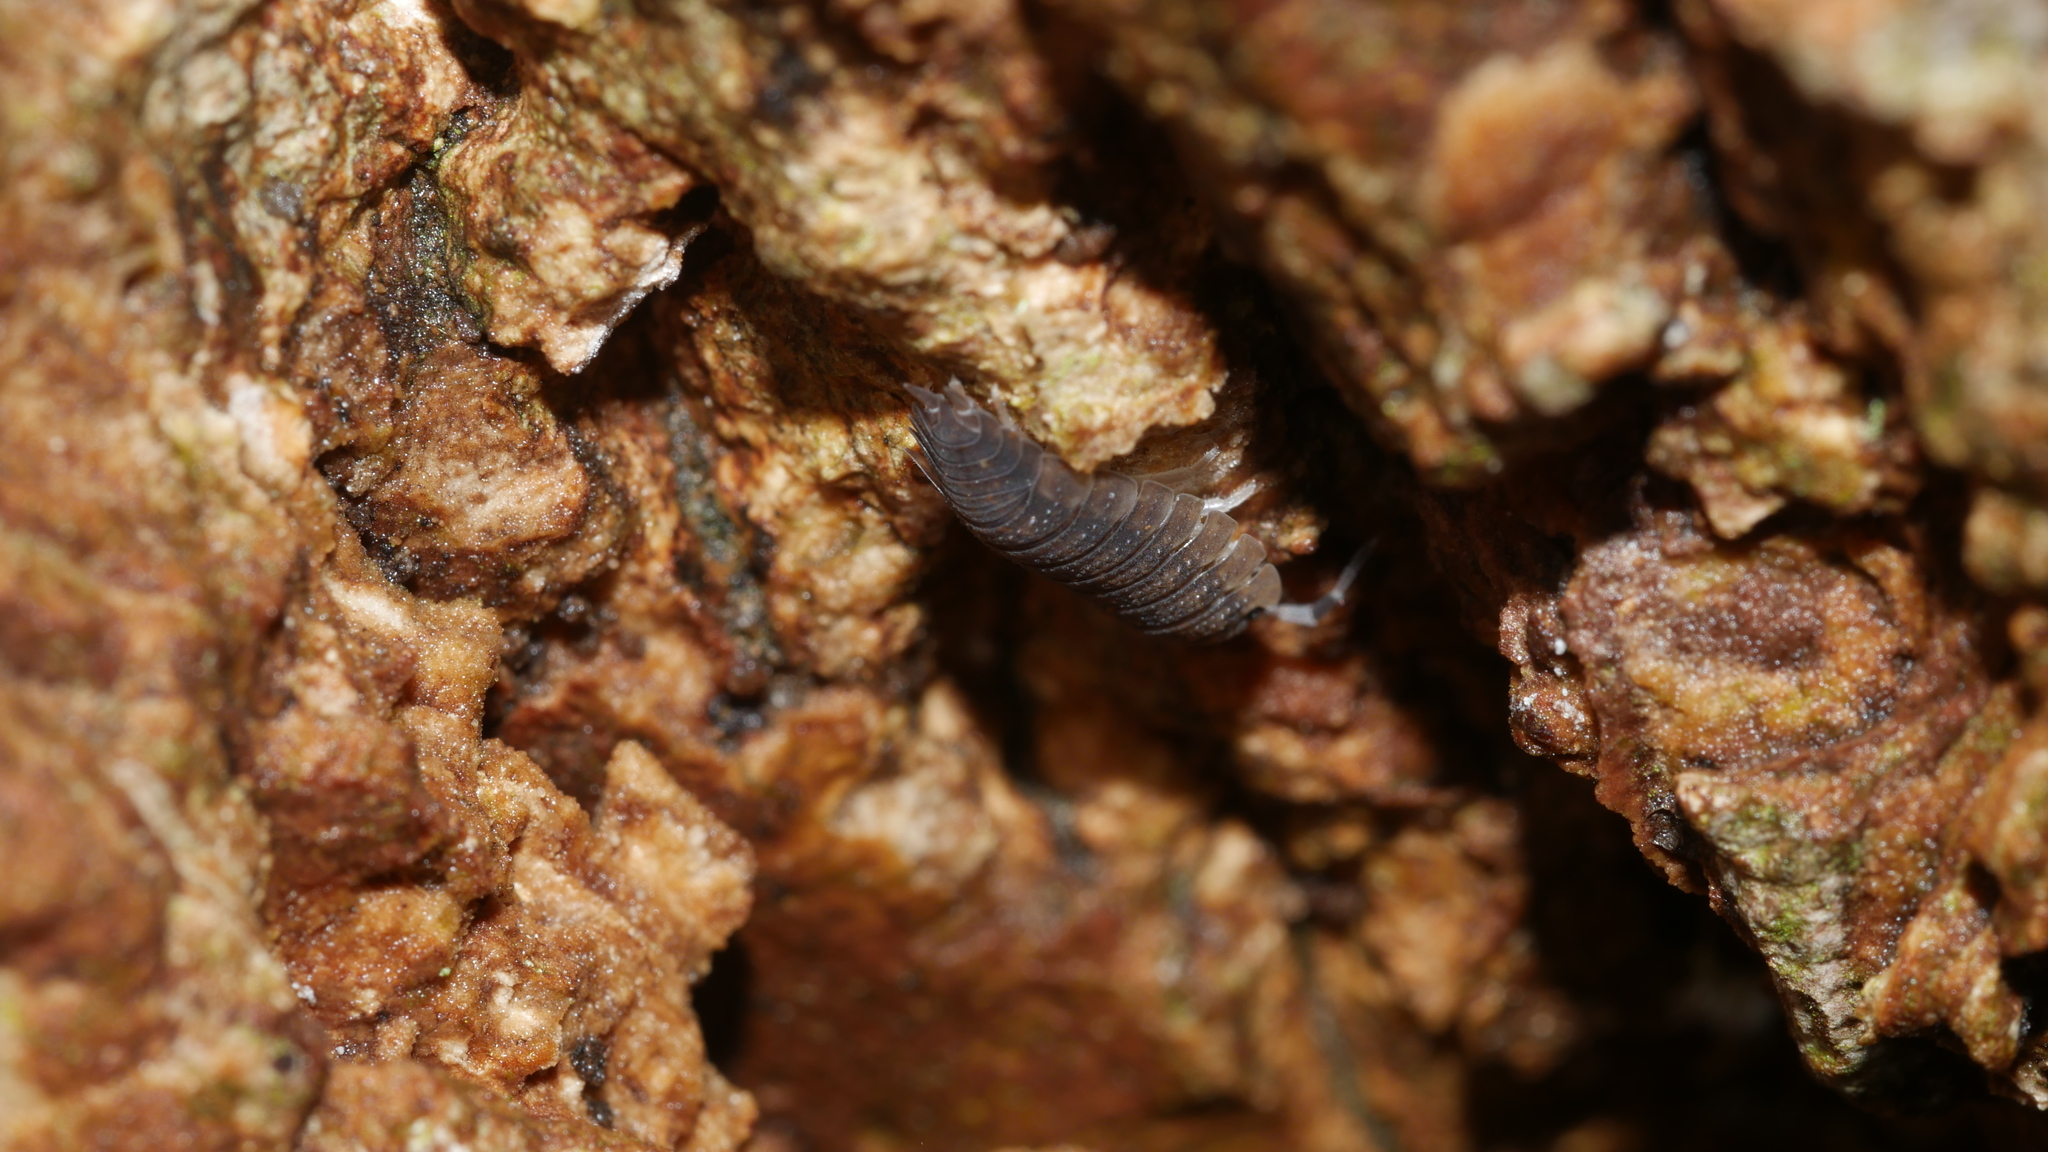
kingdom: Animalia
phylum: Arthropoda
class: Malacostraca
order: Isopoda
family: Porcellionidae
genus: Porcellio
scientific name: Porcellio scaber
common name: Common rough woodlouse
